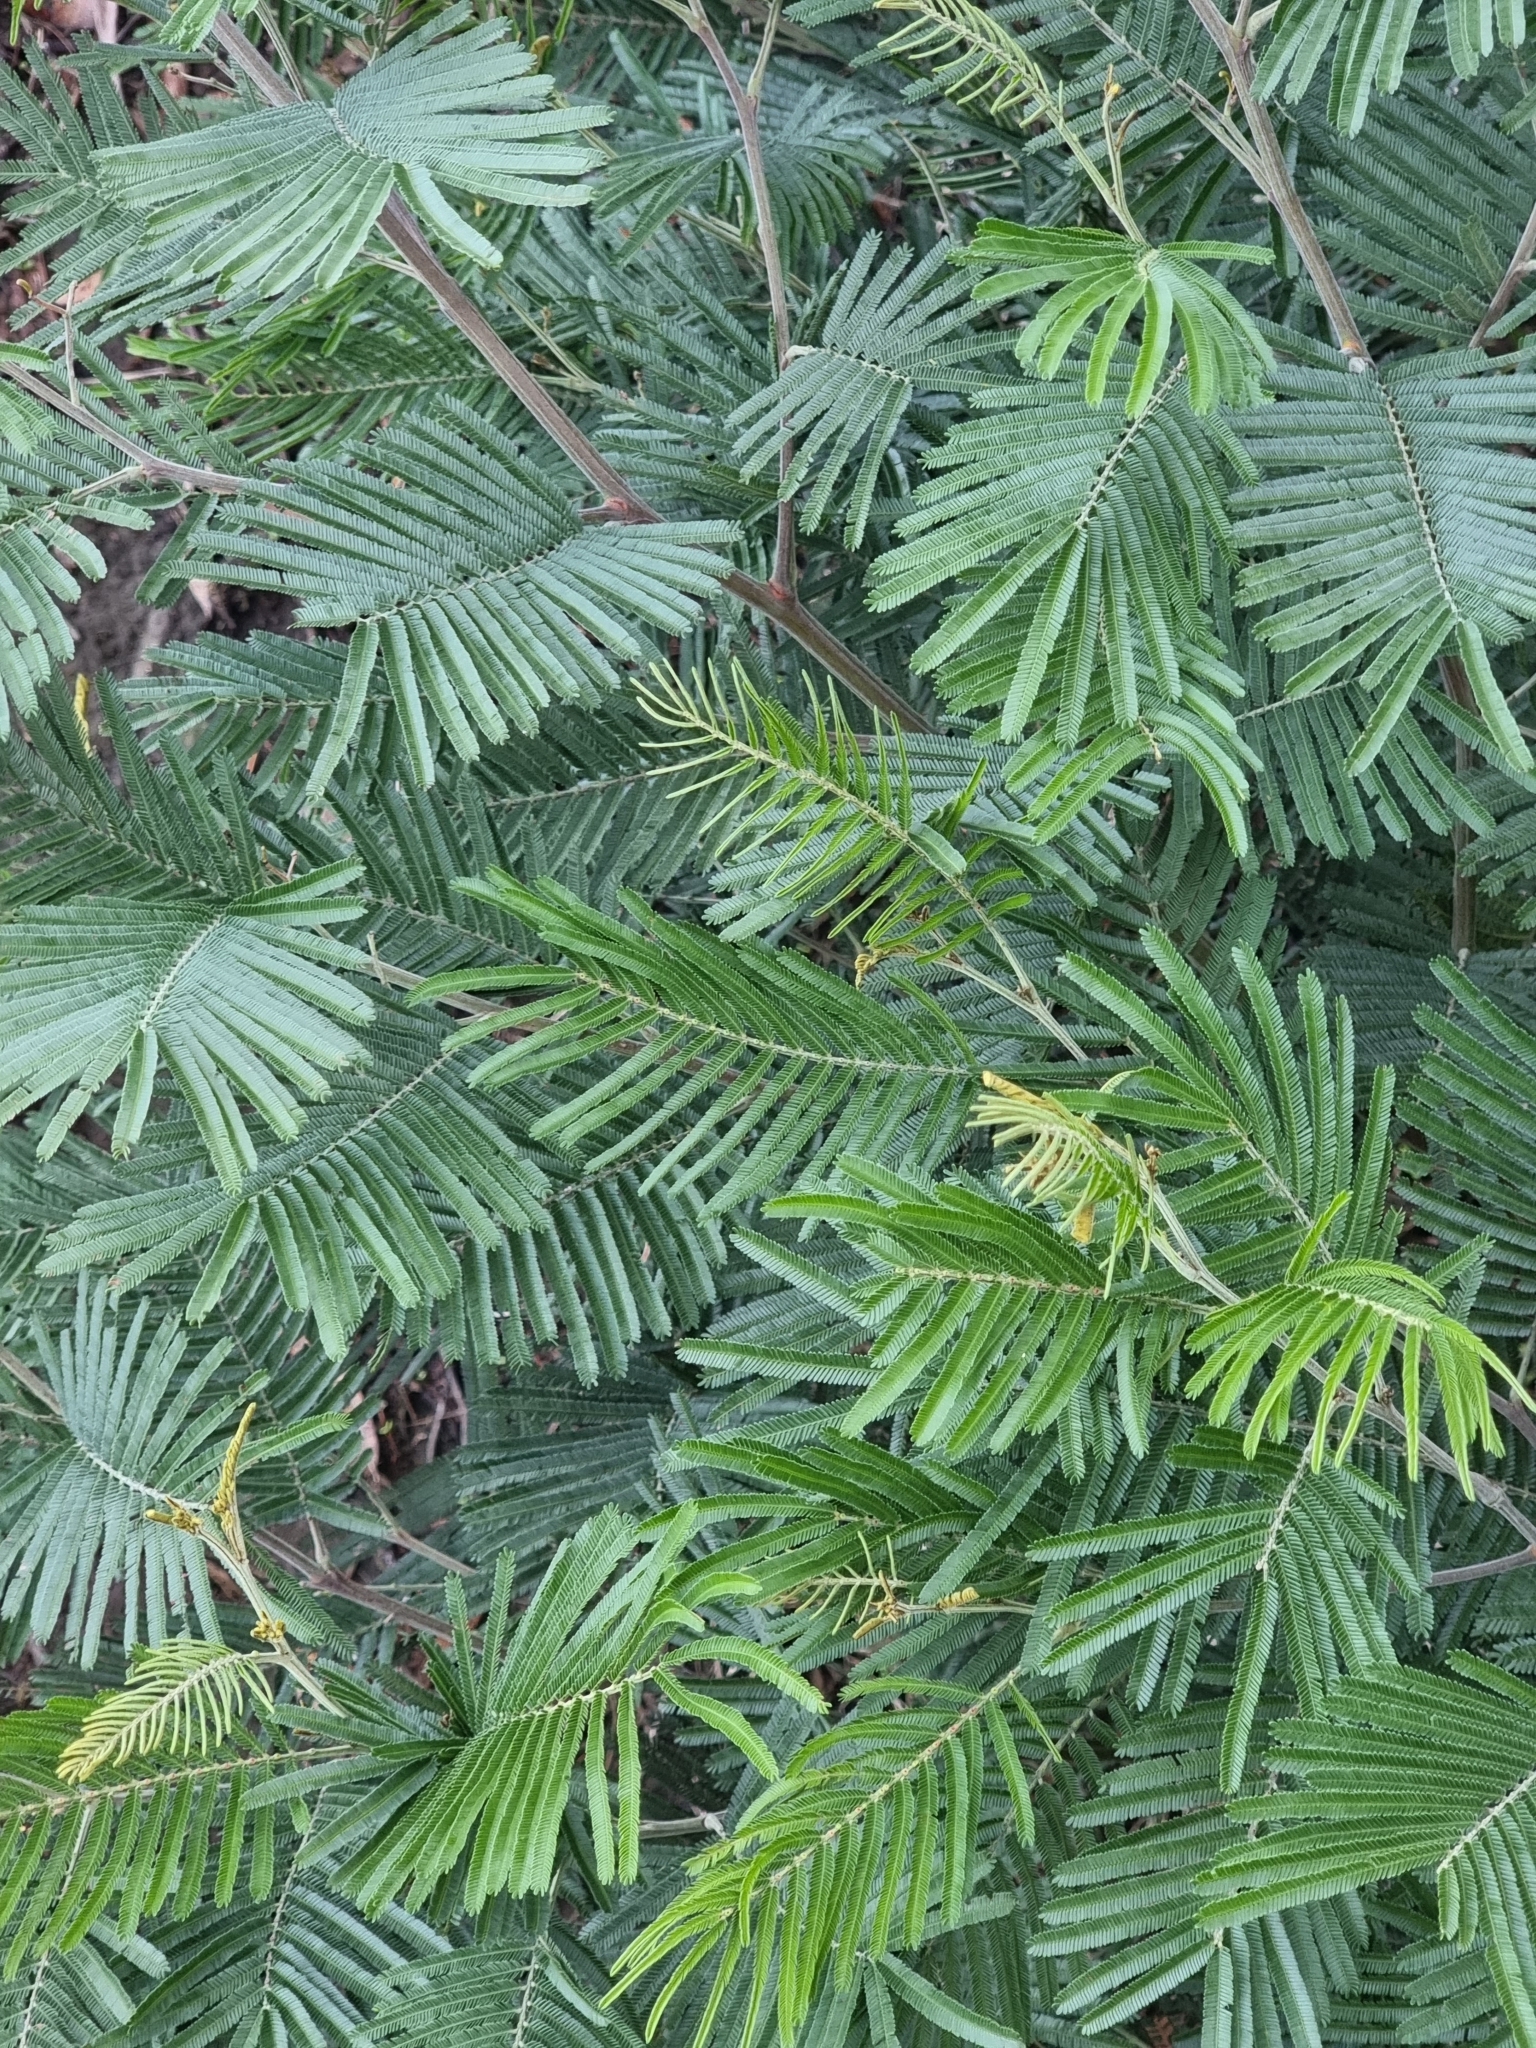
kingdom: Plantae
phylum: Tracheophyta
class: Magnoliopsida
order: Fabales
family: Fabaceae
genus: Acacia
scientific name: Acacia mearnsii
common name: Black wattle
